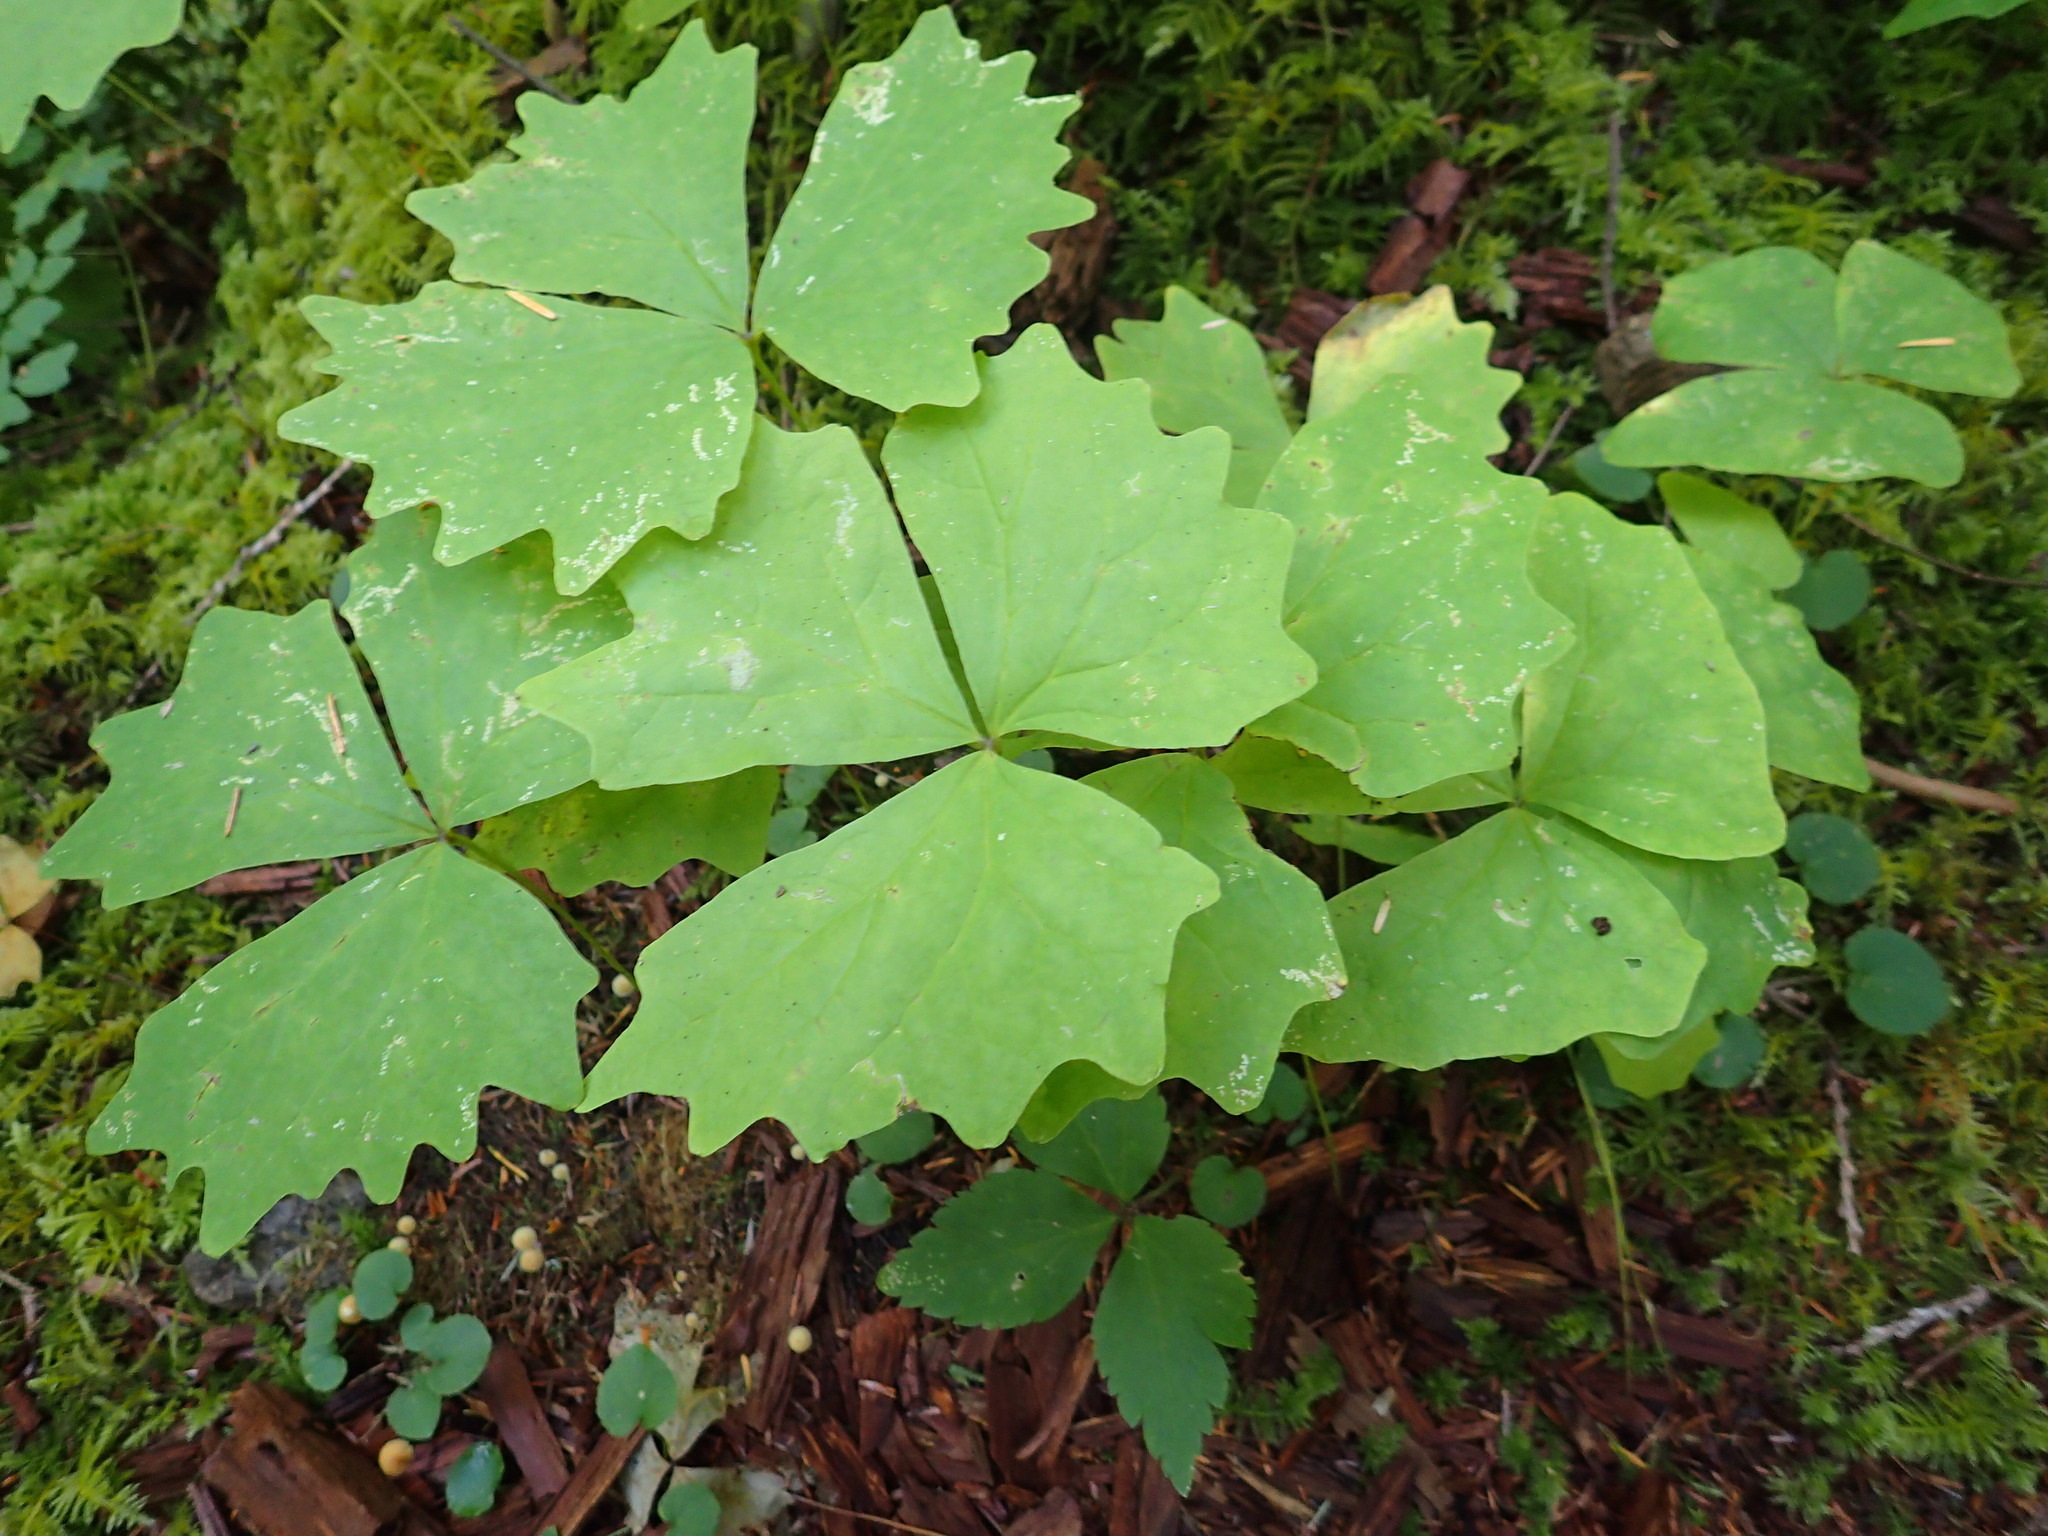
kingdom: Plantae
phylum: Tracheophyta
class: Magnoliopsida
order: Ranunculales
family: Berberidaceae
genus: Achlys
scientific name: Achlys triphylla
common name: Vanilla-leaf
